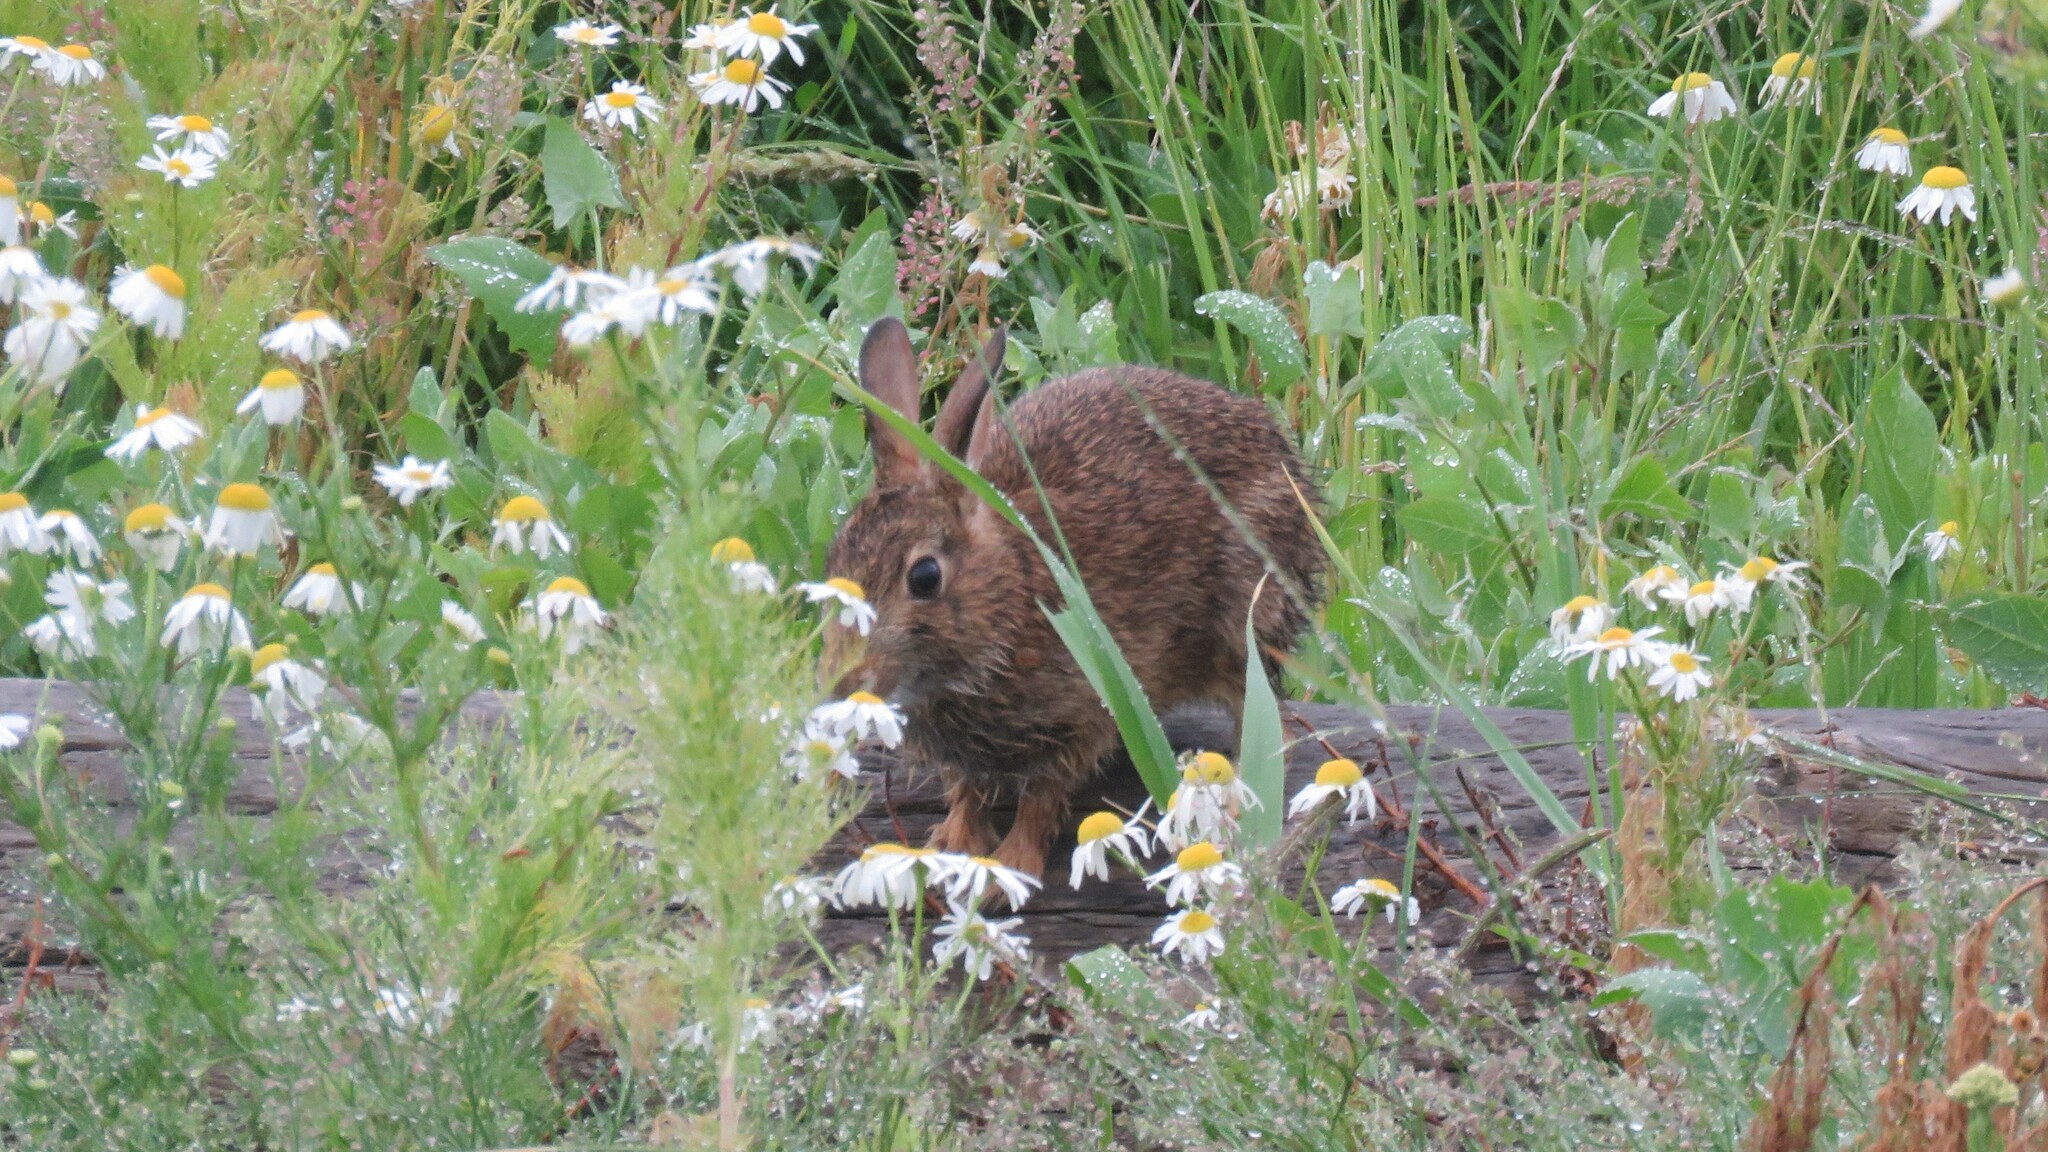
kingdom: Animalia
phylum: Chordata
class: Mammalia
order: Lagomorpha
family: Leporidae
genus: Oryctolagus
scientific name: Oryctolagus cuniculus
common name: European rabbit
